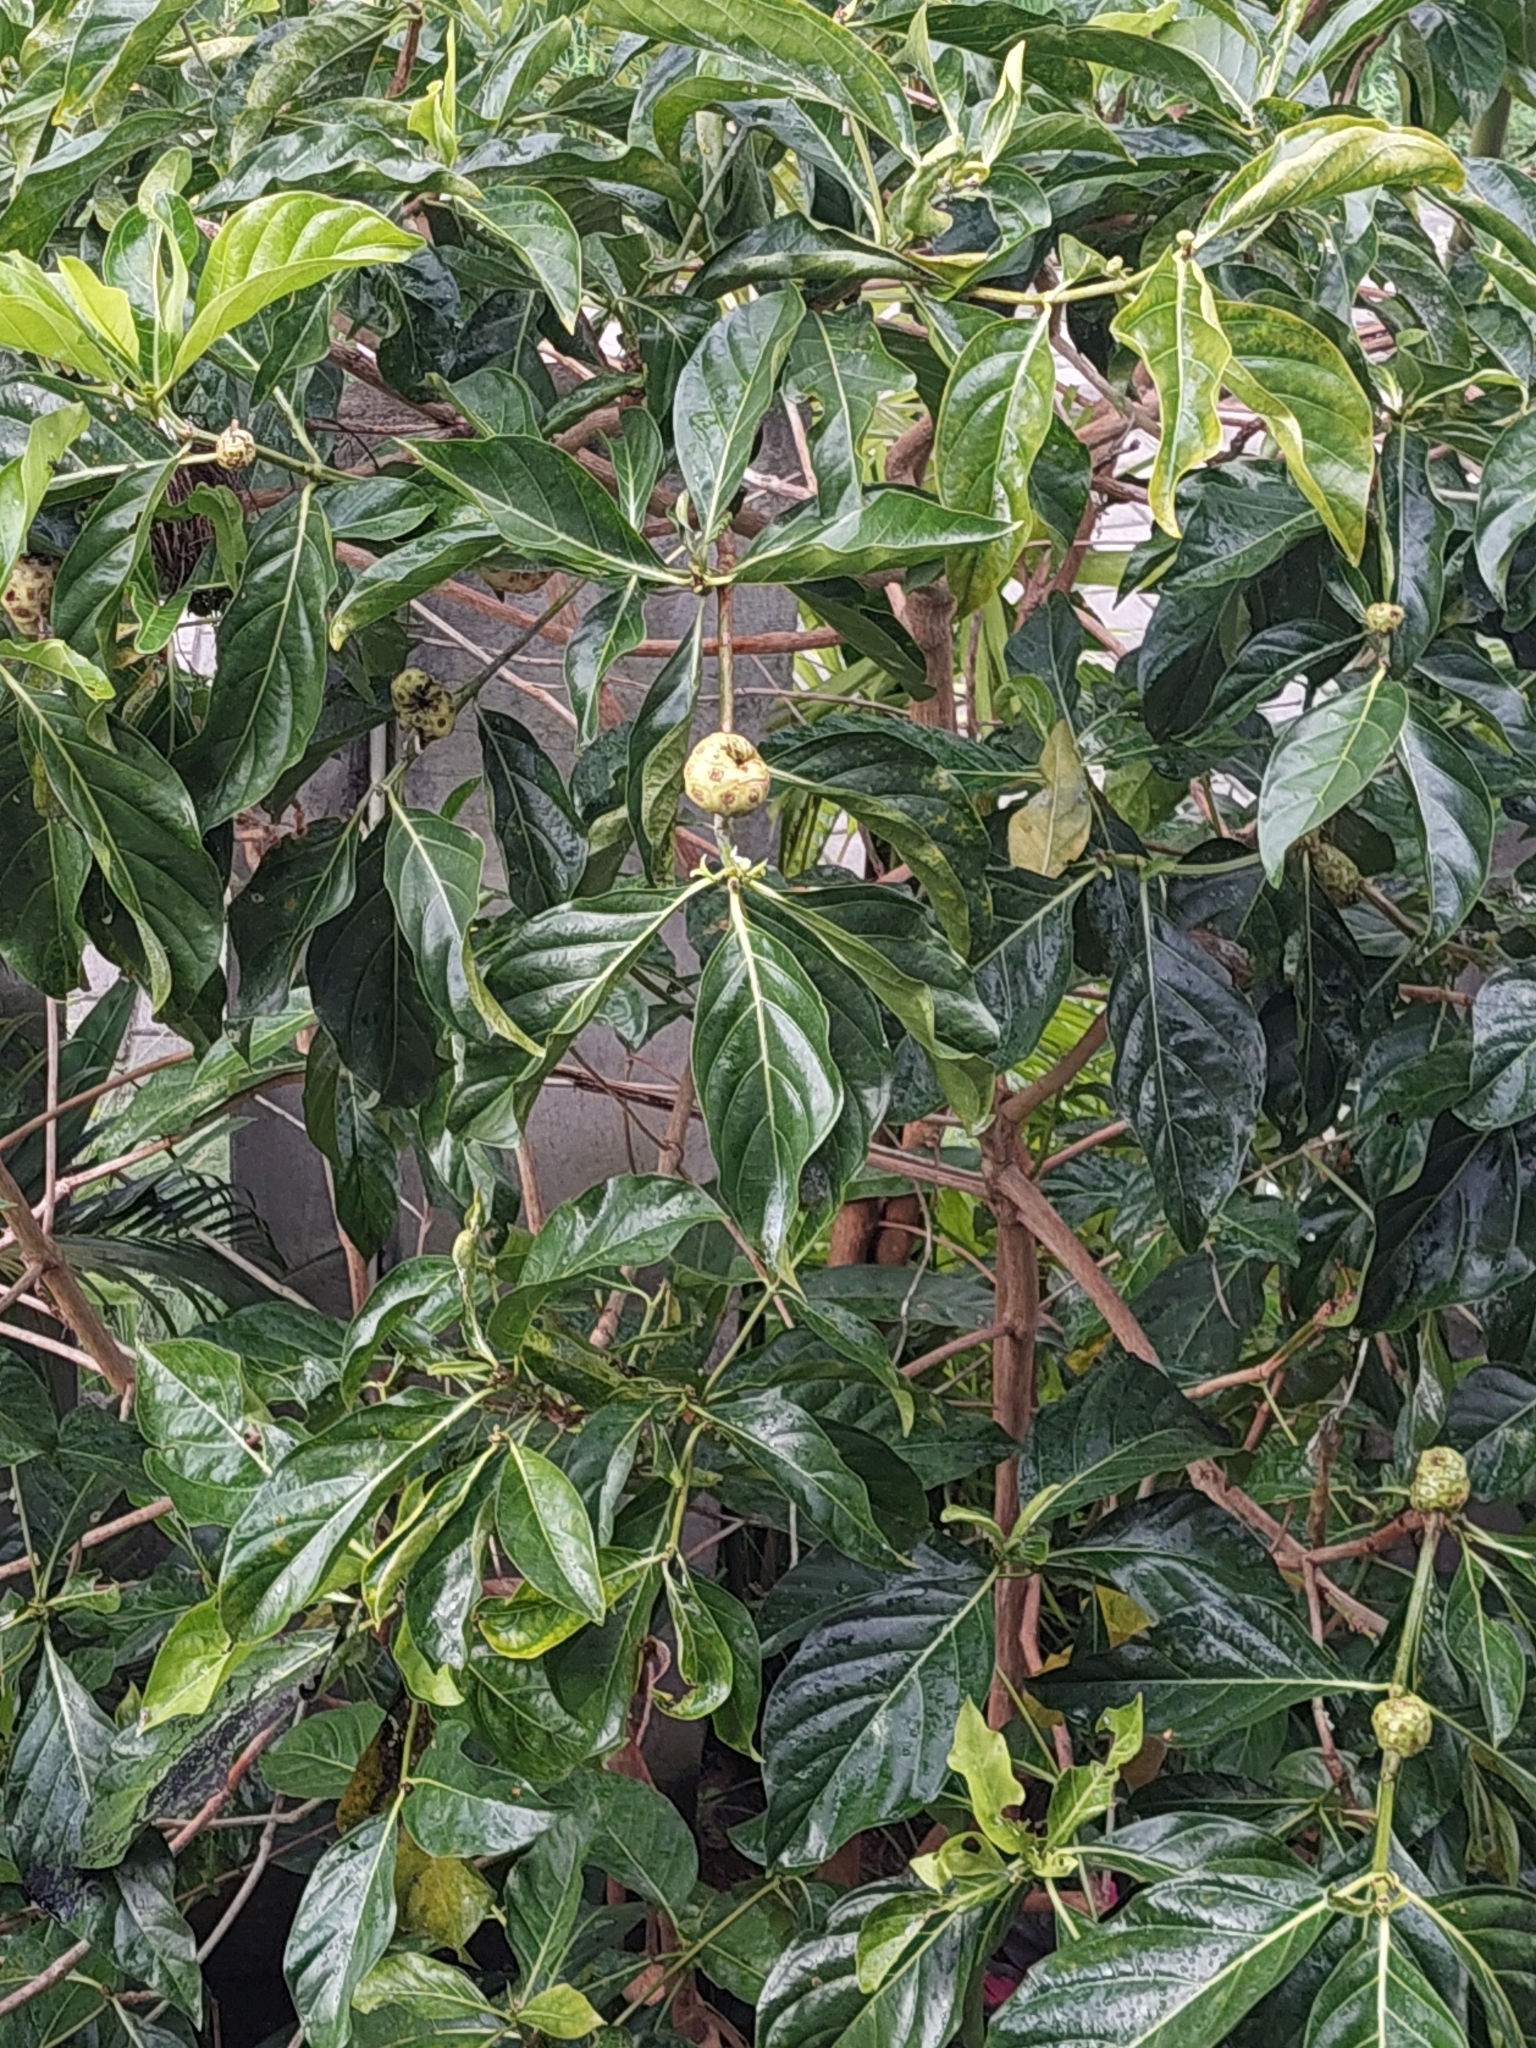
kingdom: Plantae
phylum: Tracheophyta
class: Magnoliopsida
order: Gentianales
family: Rubiaceae
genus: Morinda
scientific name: Morinda citrifolia
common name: Indian-mulberry
